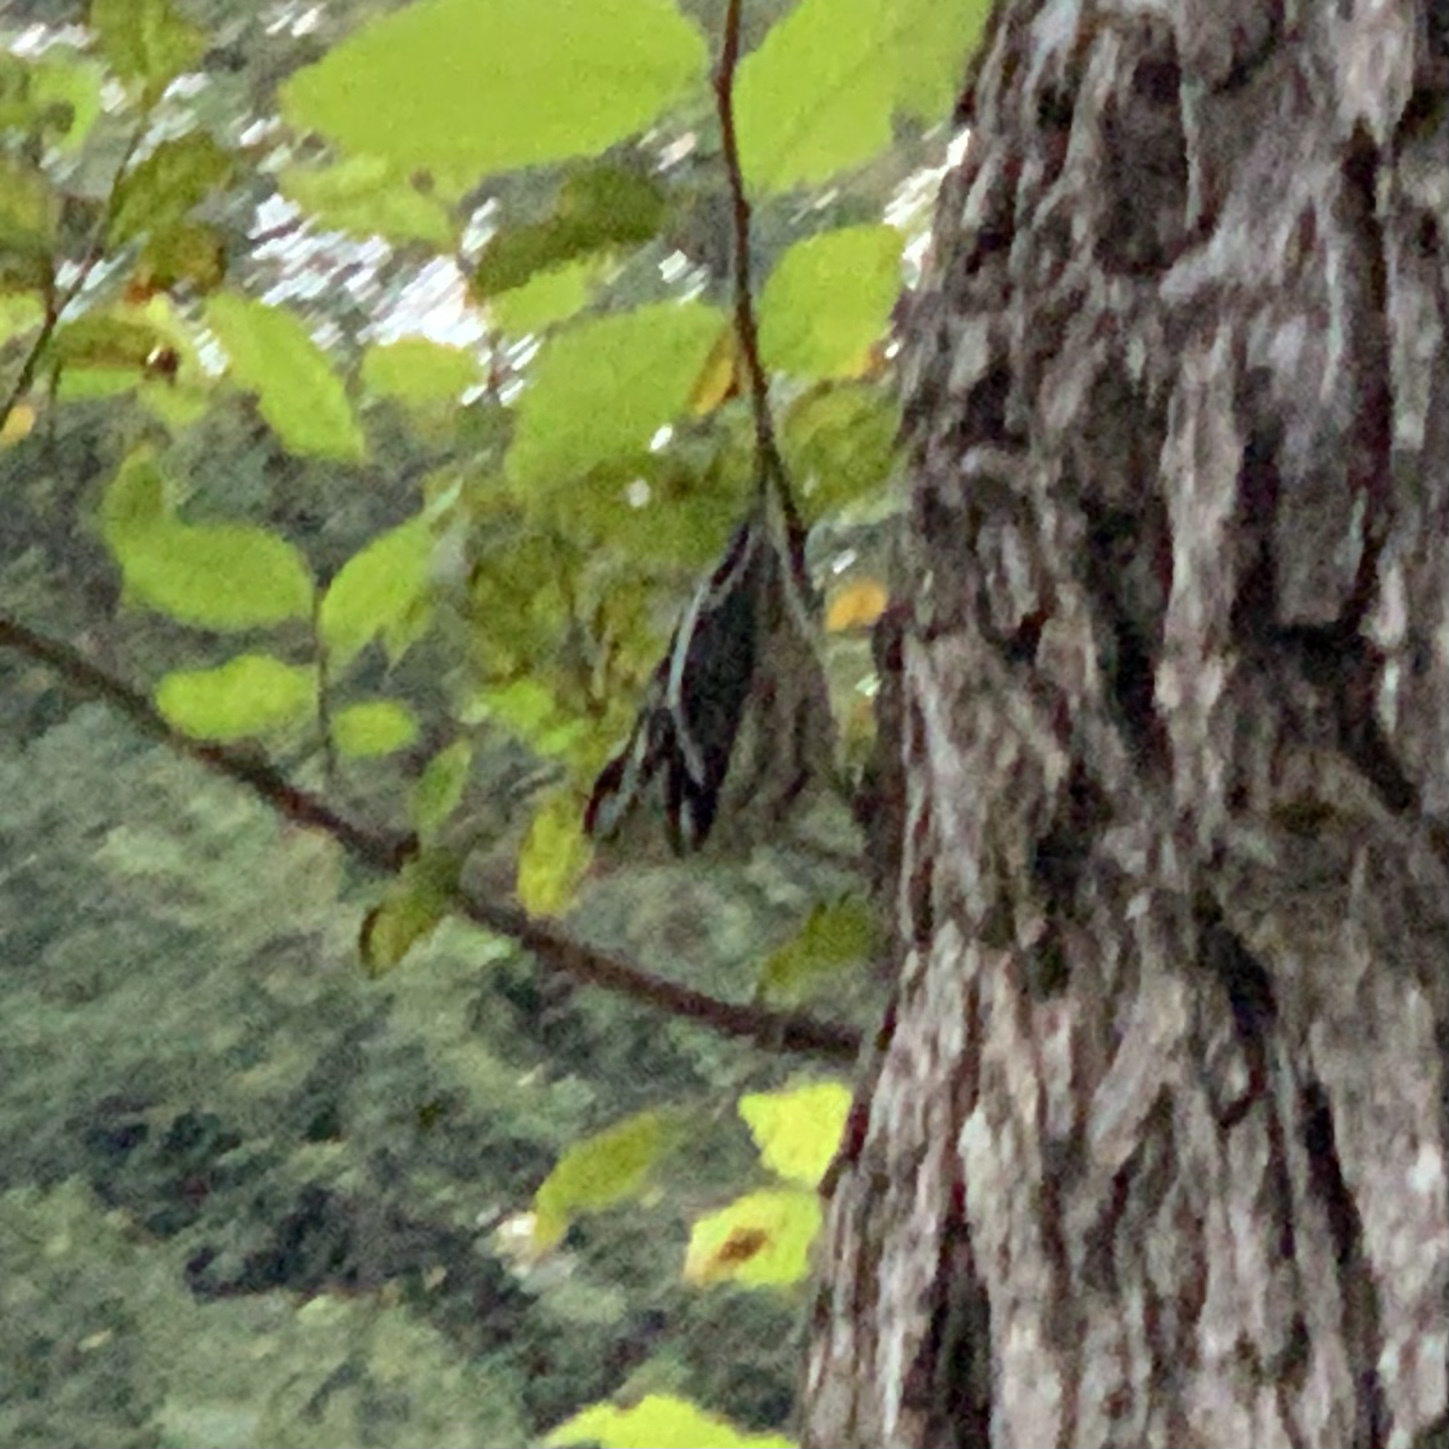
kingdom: Animalia
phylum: Chordata
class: Aves
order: Passeriformes
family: Parulidae
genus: Mniotilta
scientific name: Mniotilta varia
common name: Black-and-white warbler
